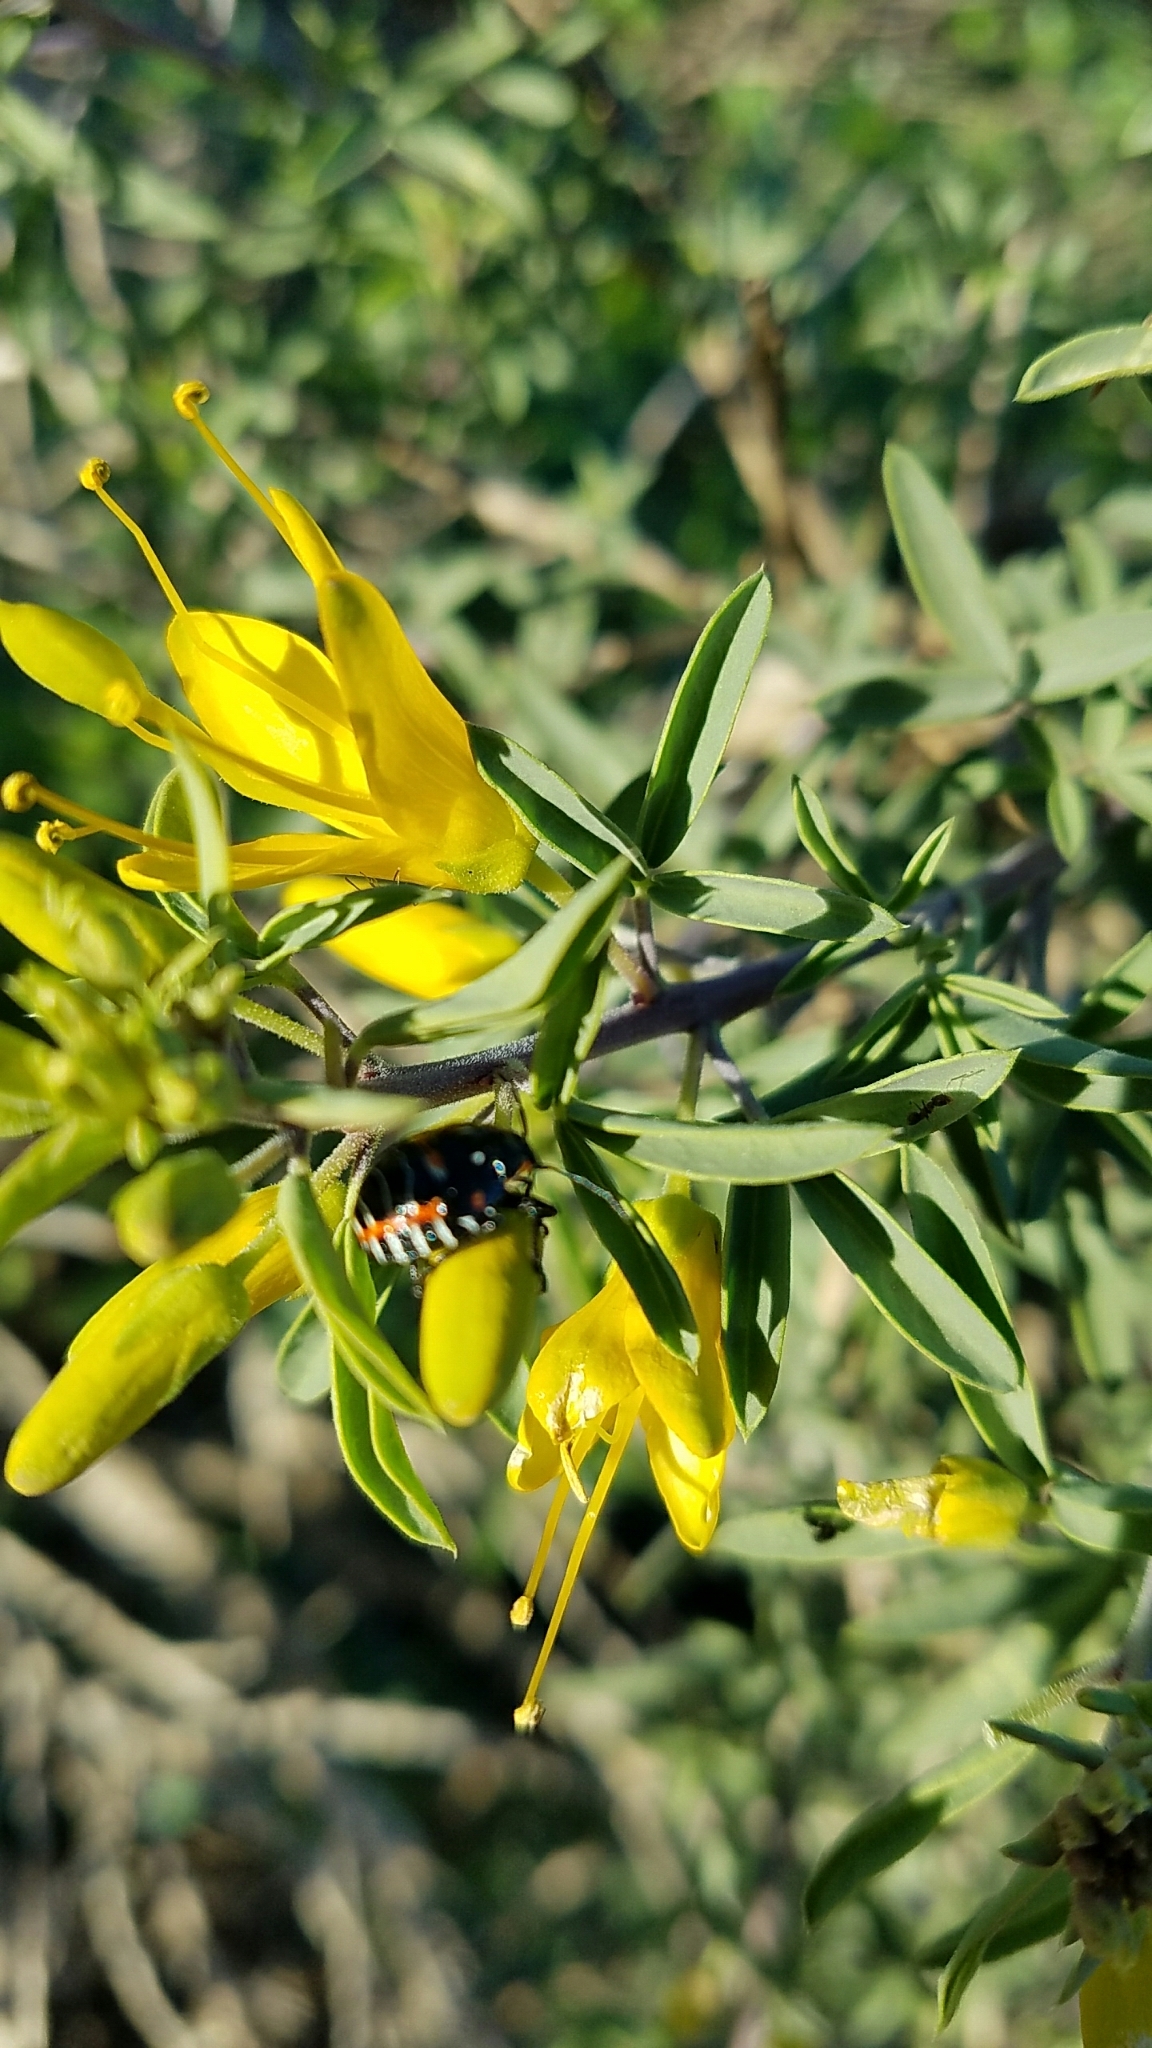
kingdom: Animalia
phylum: Arthropoda
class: Insecta
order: Hemiptera
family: Pentatomidae
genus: Murgantia
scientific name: Murgantia histrionica
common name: Harlequin bug
